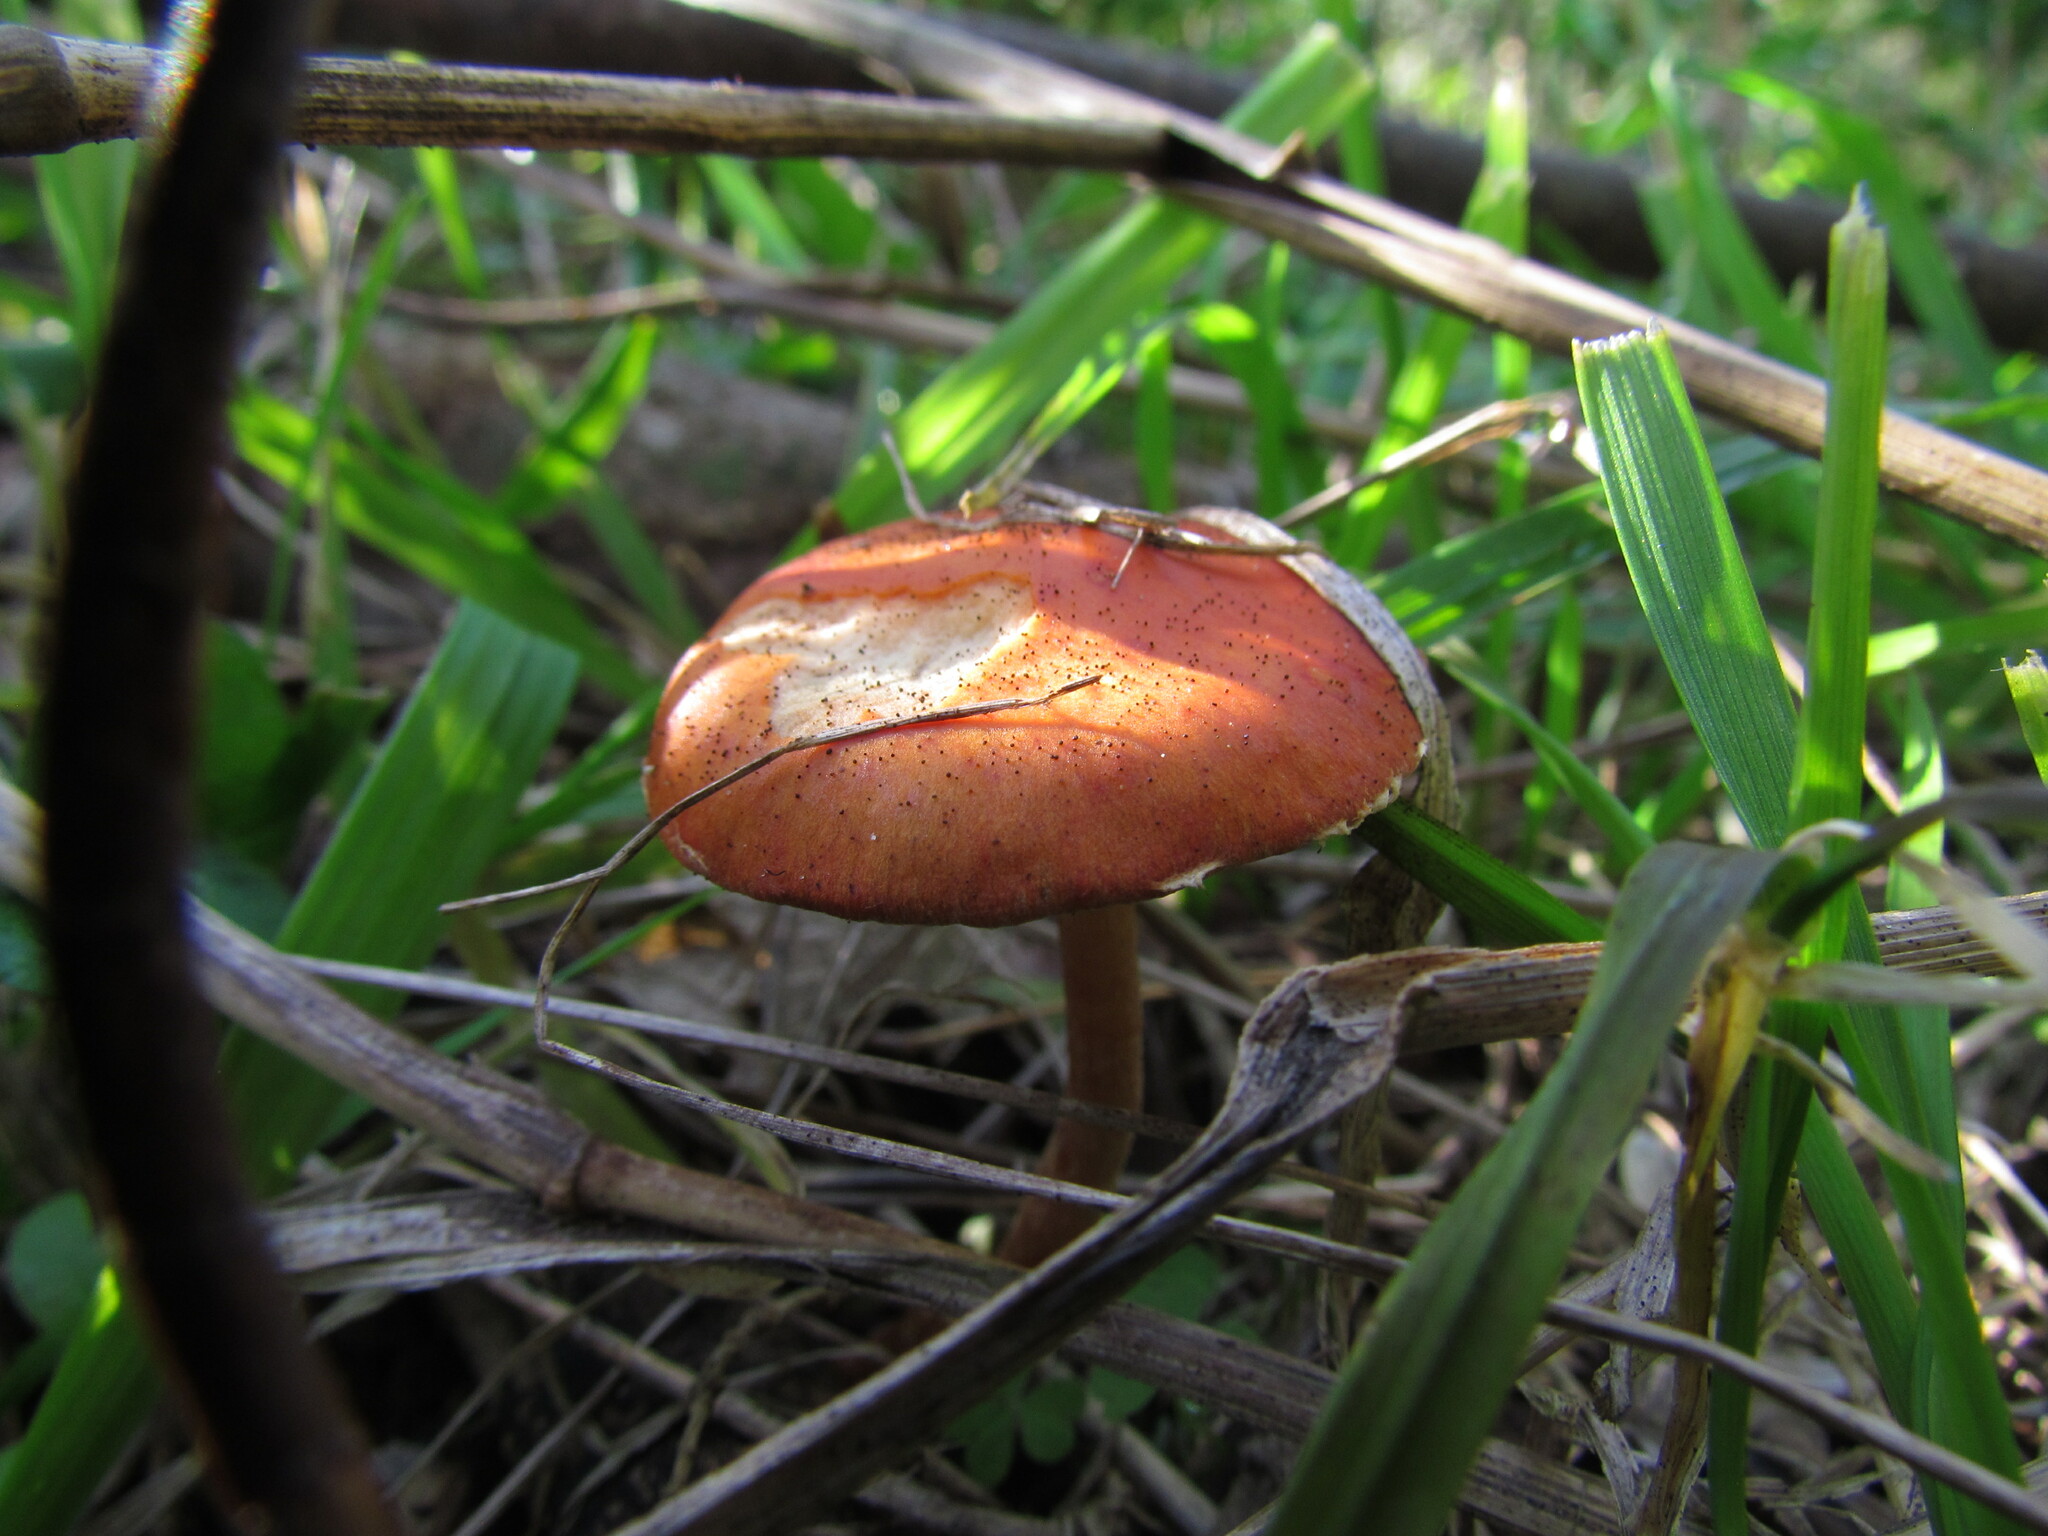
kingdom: Fungi
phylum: Basidiomycota
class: Agaricomycetes
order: Agaricales
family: Strophariaceae
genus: Leratiomyces
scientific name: Leratiomyces ceres
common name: Redlead roundhead
